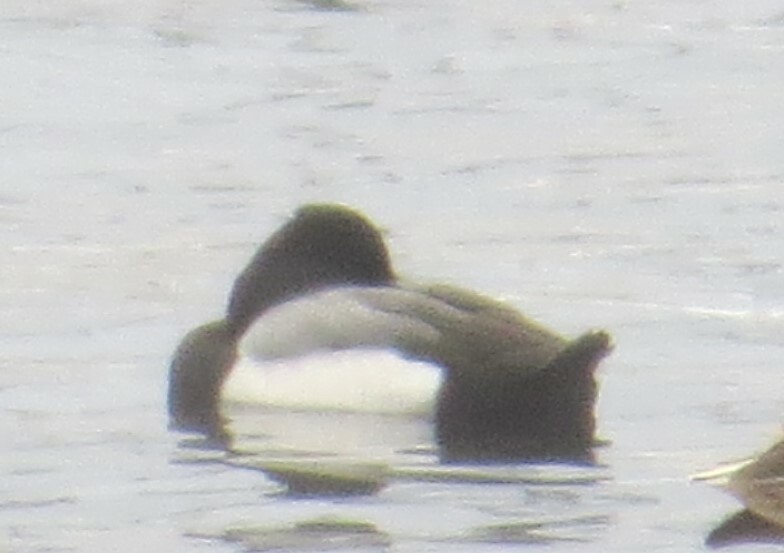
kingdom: Animalia
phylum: Chordata
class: Aves
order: Anseriformes
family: Anatidae
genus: Aythya
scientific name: Aythya affinis
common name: Lesser scaup
